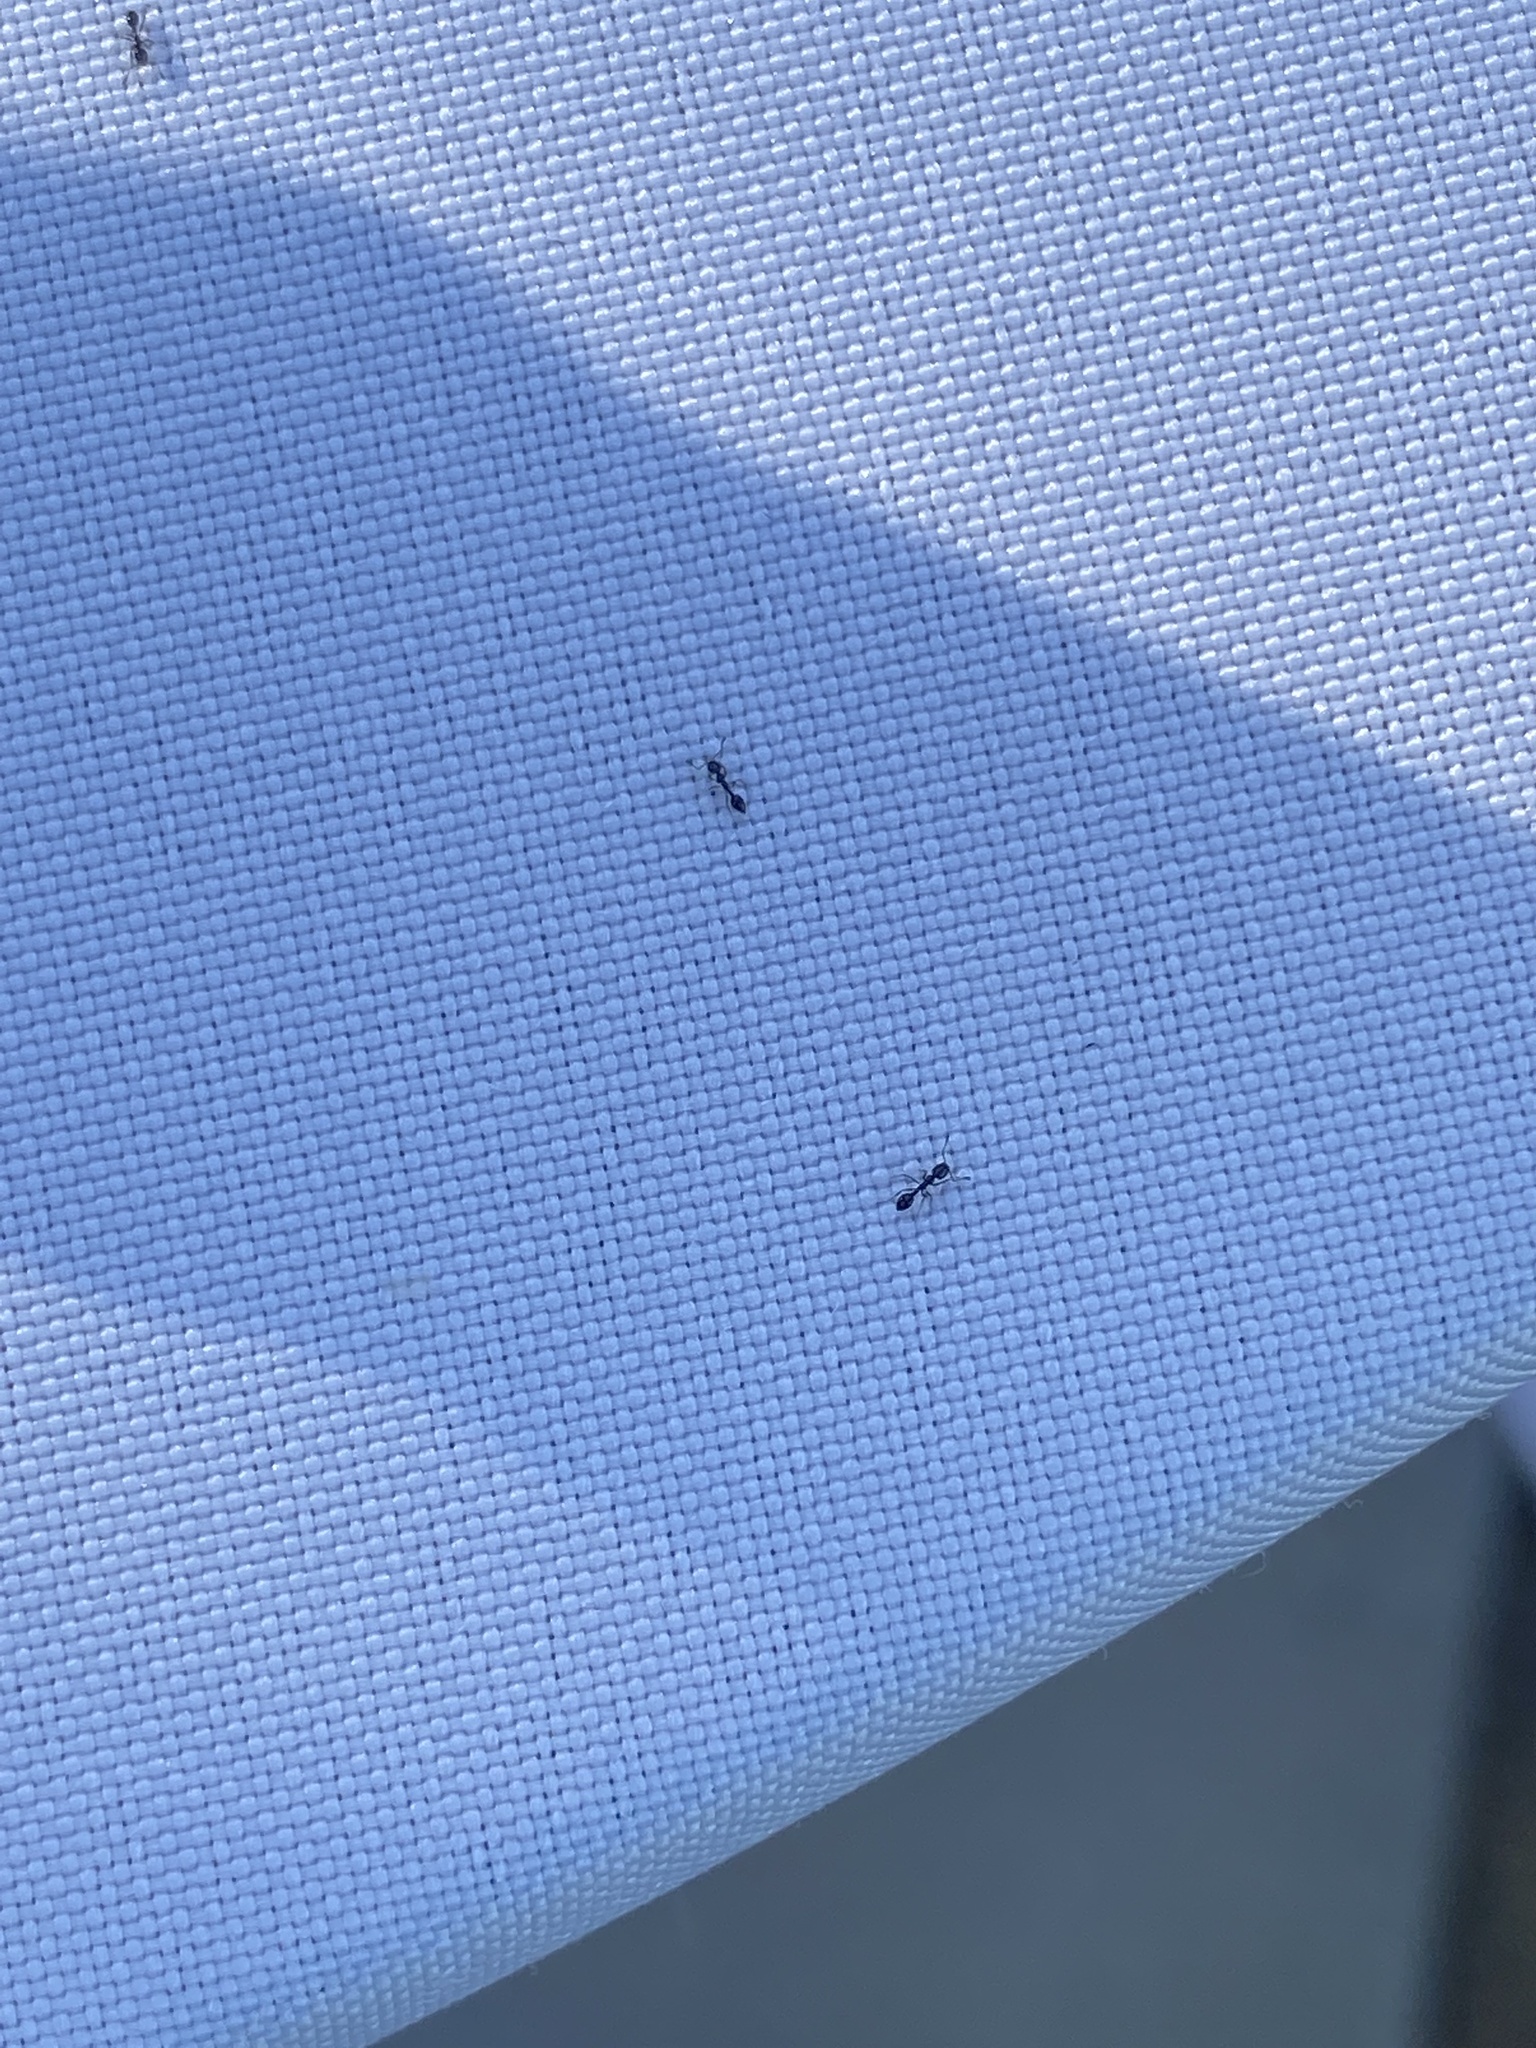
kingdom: Animalia
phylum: Arthropoda
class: Insecta
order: Hymenoptera
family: Formicidae
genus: Monomorium
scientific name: Monomorium ergatogyna
